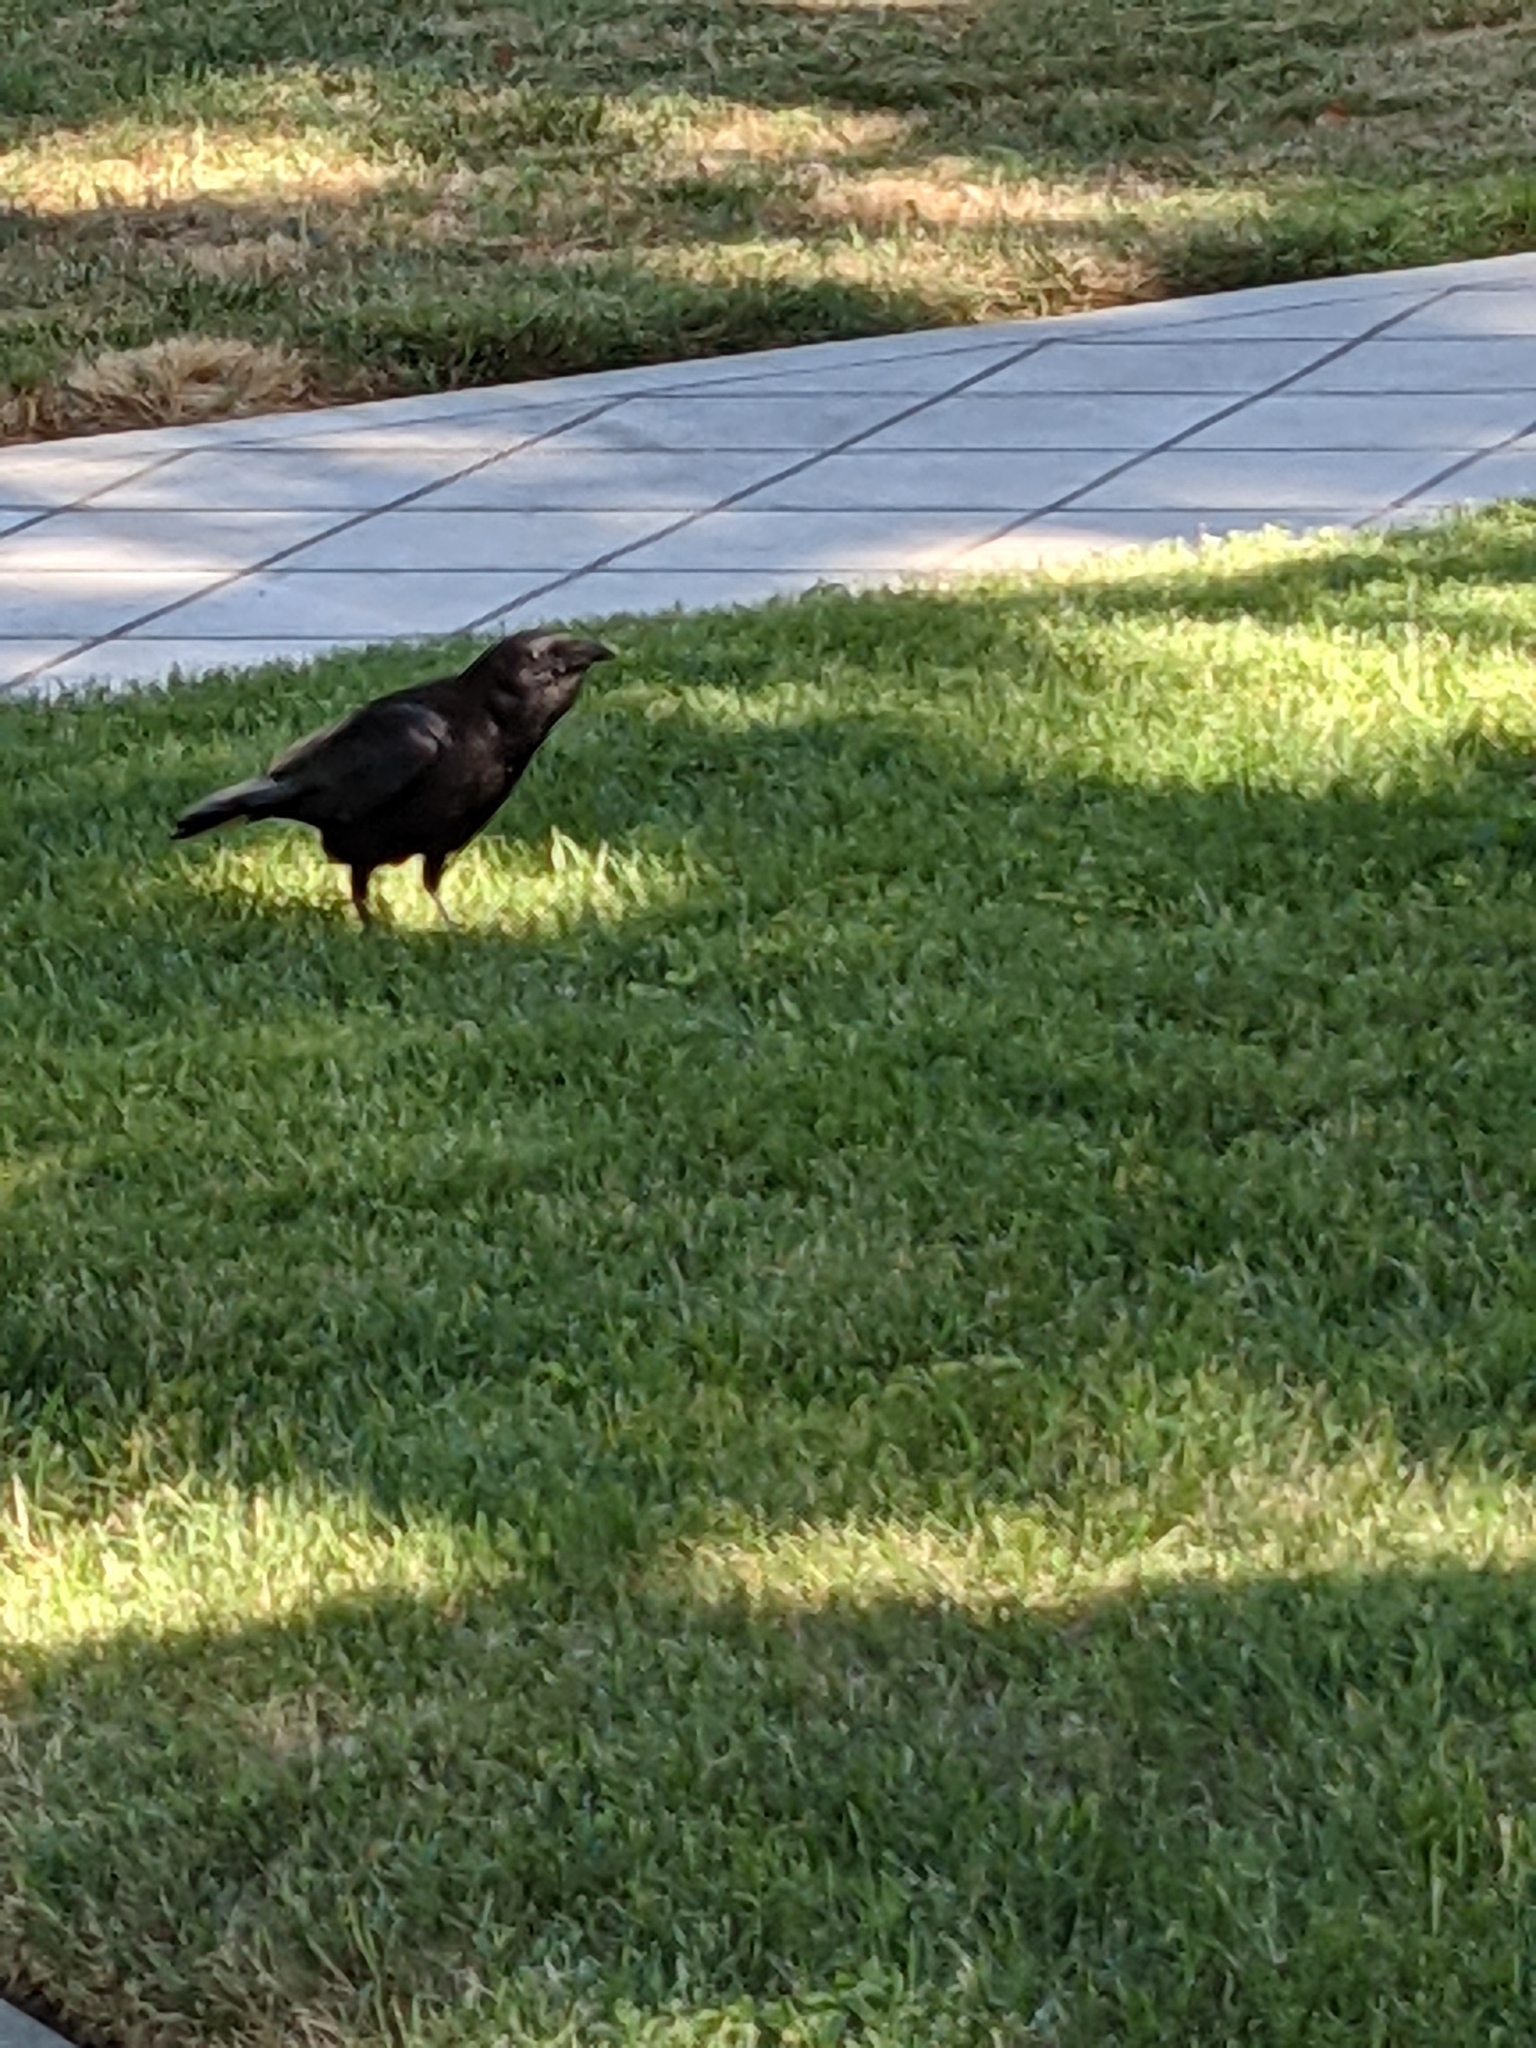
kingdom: Animalia
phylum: Chordata
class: Aves
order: Passeriformes
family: Corvidae
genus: Corvus
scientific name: Corvus brachyrhynchos
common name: American crow
